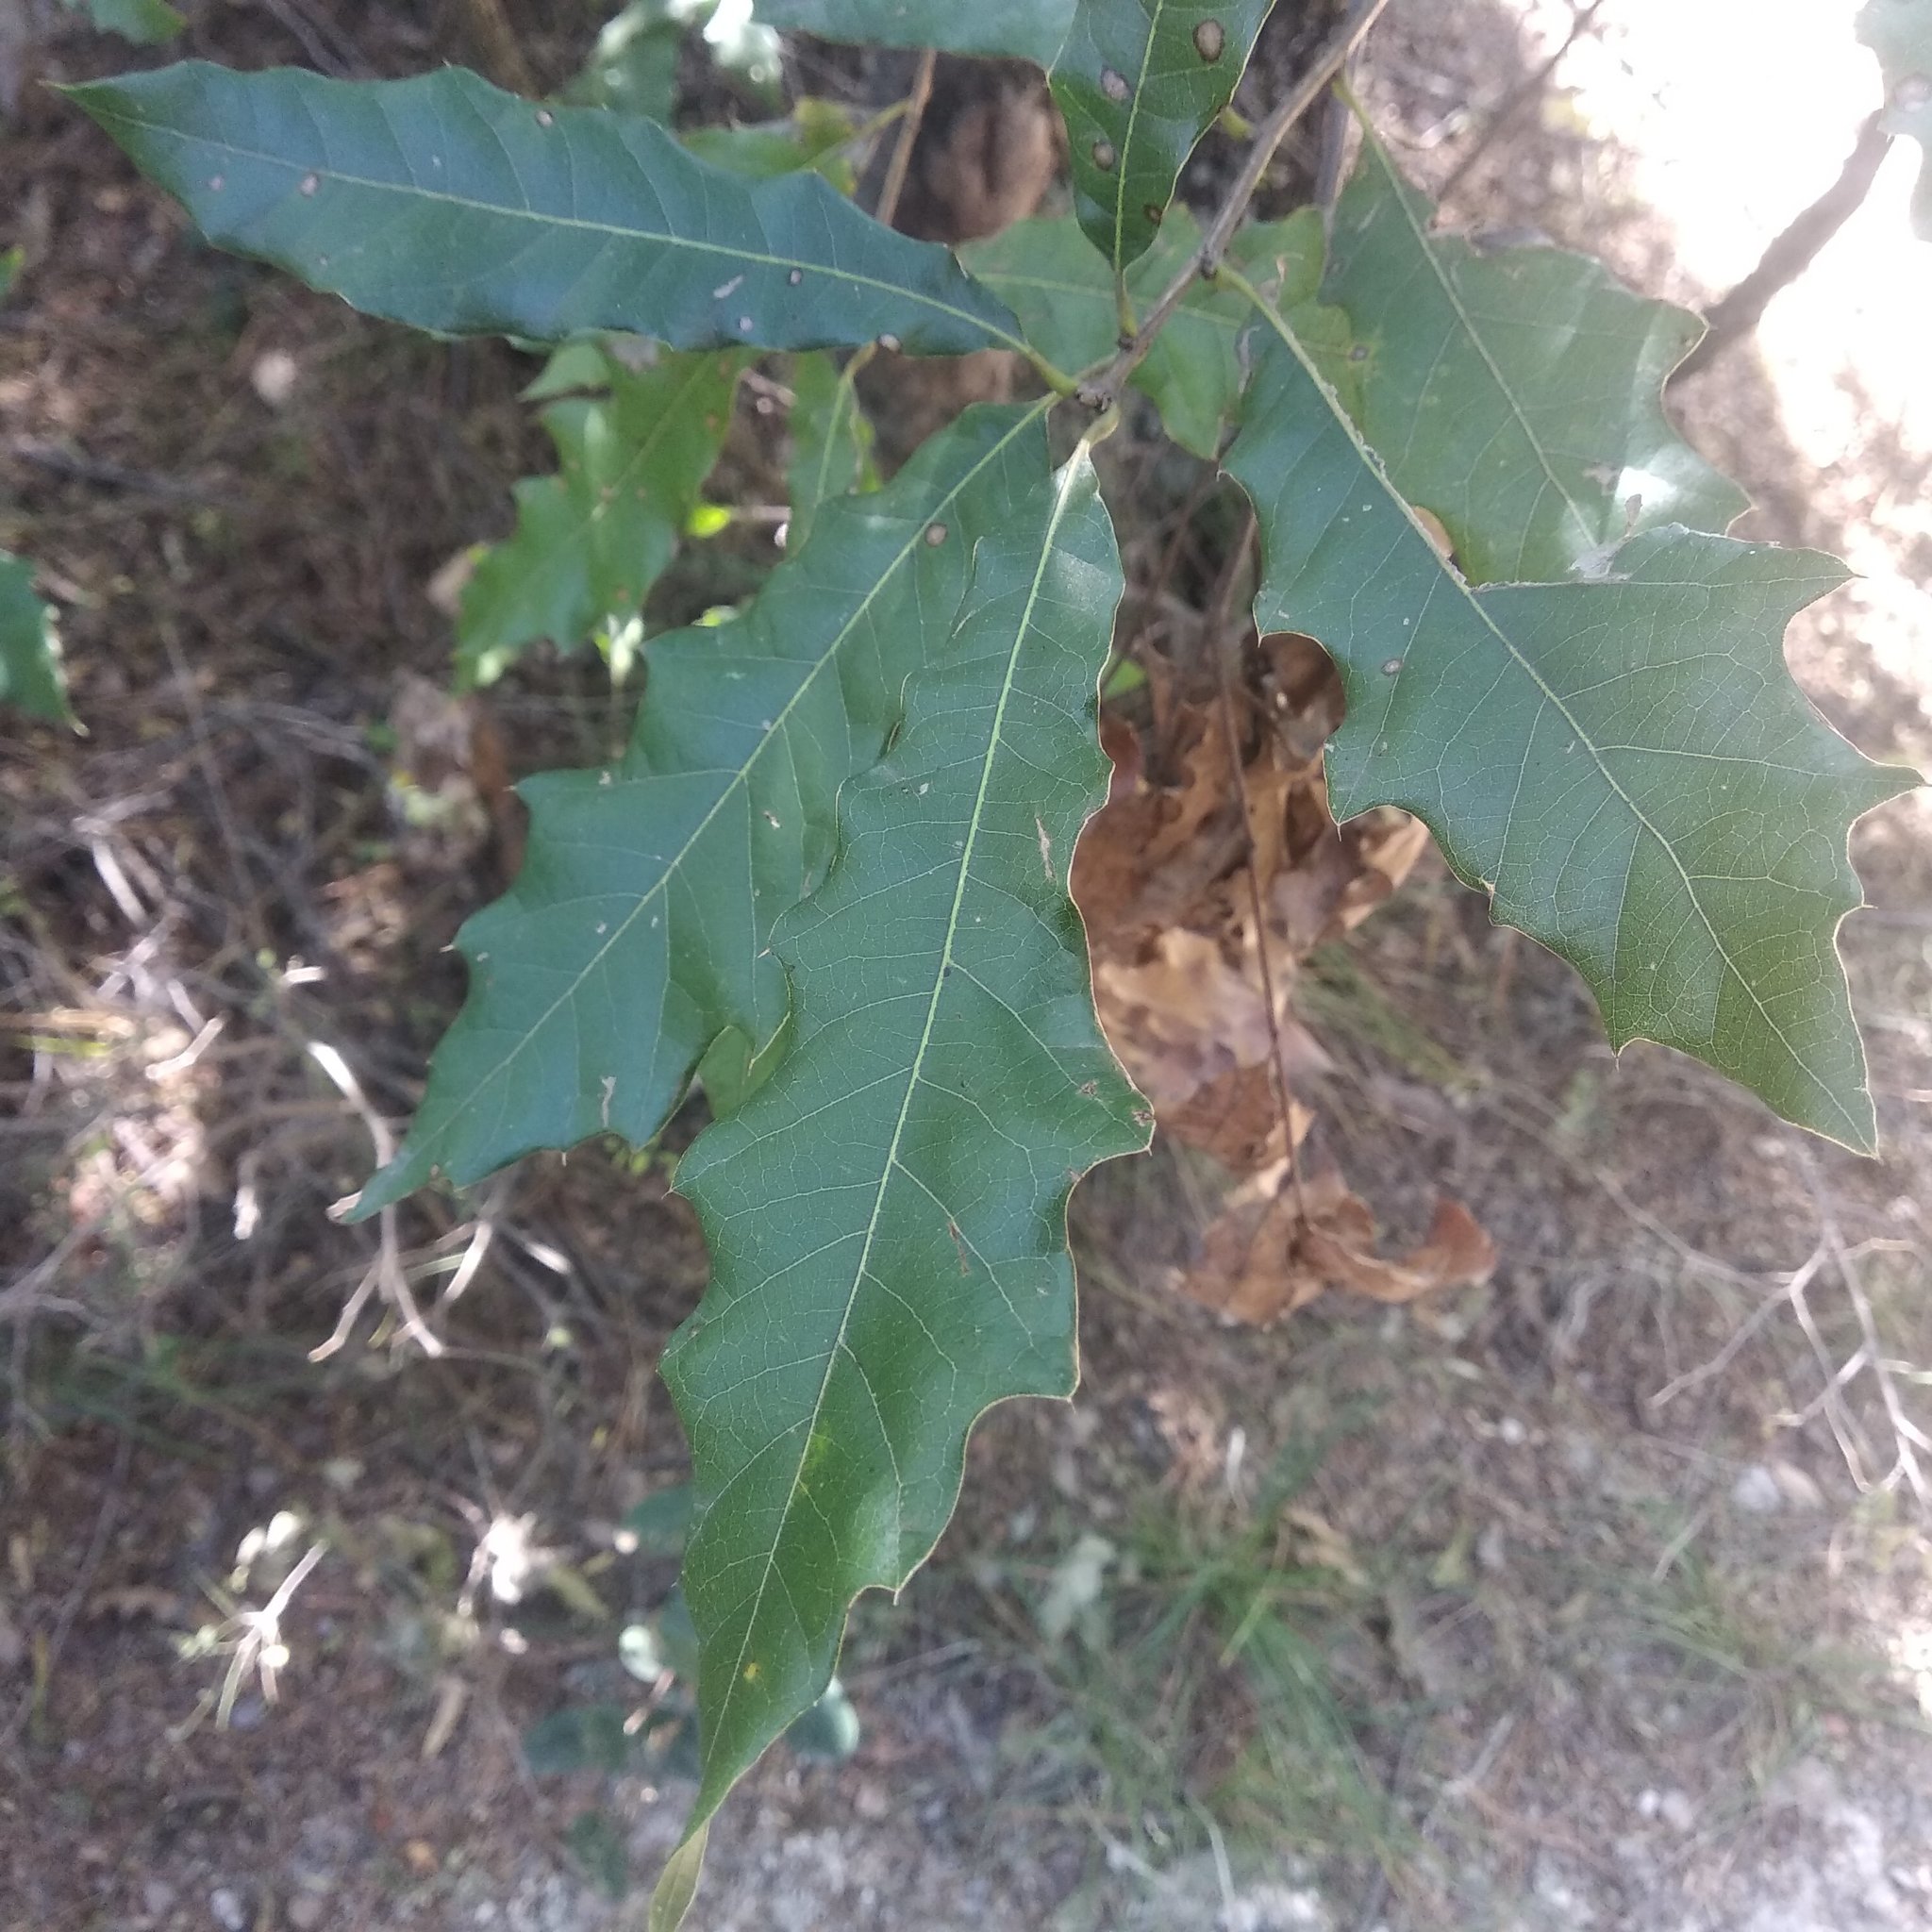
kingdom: Plantae
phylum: Tracheophyta
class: Magnoliopsida
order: Fagales
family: Fagaceae
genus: Quercus
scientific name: Quercus grahamii
